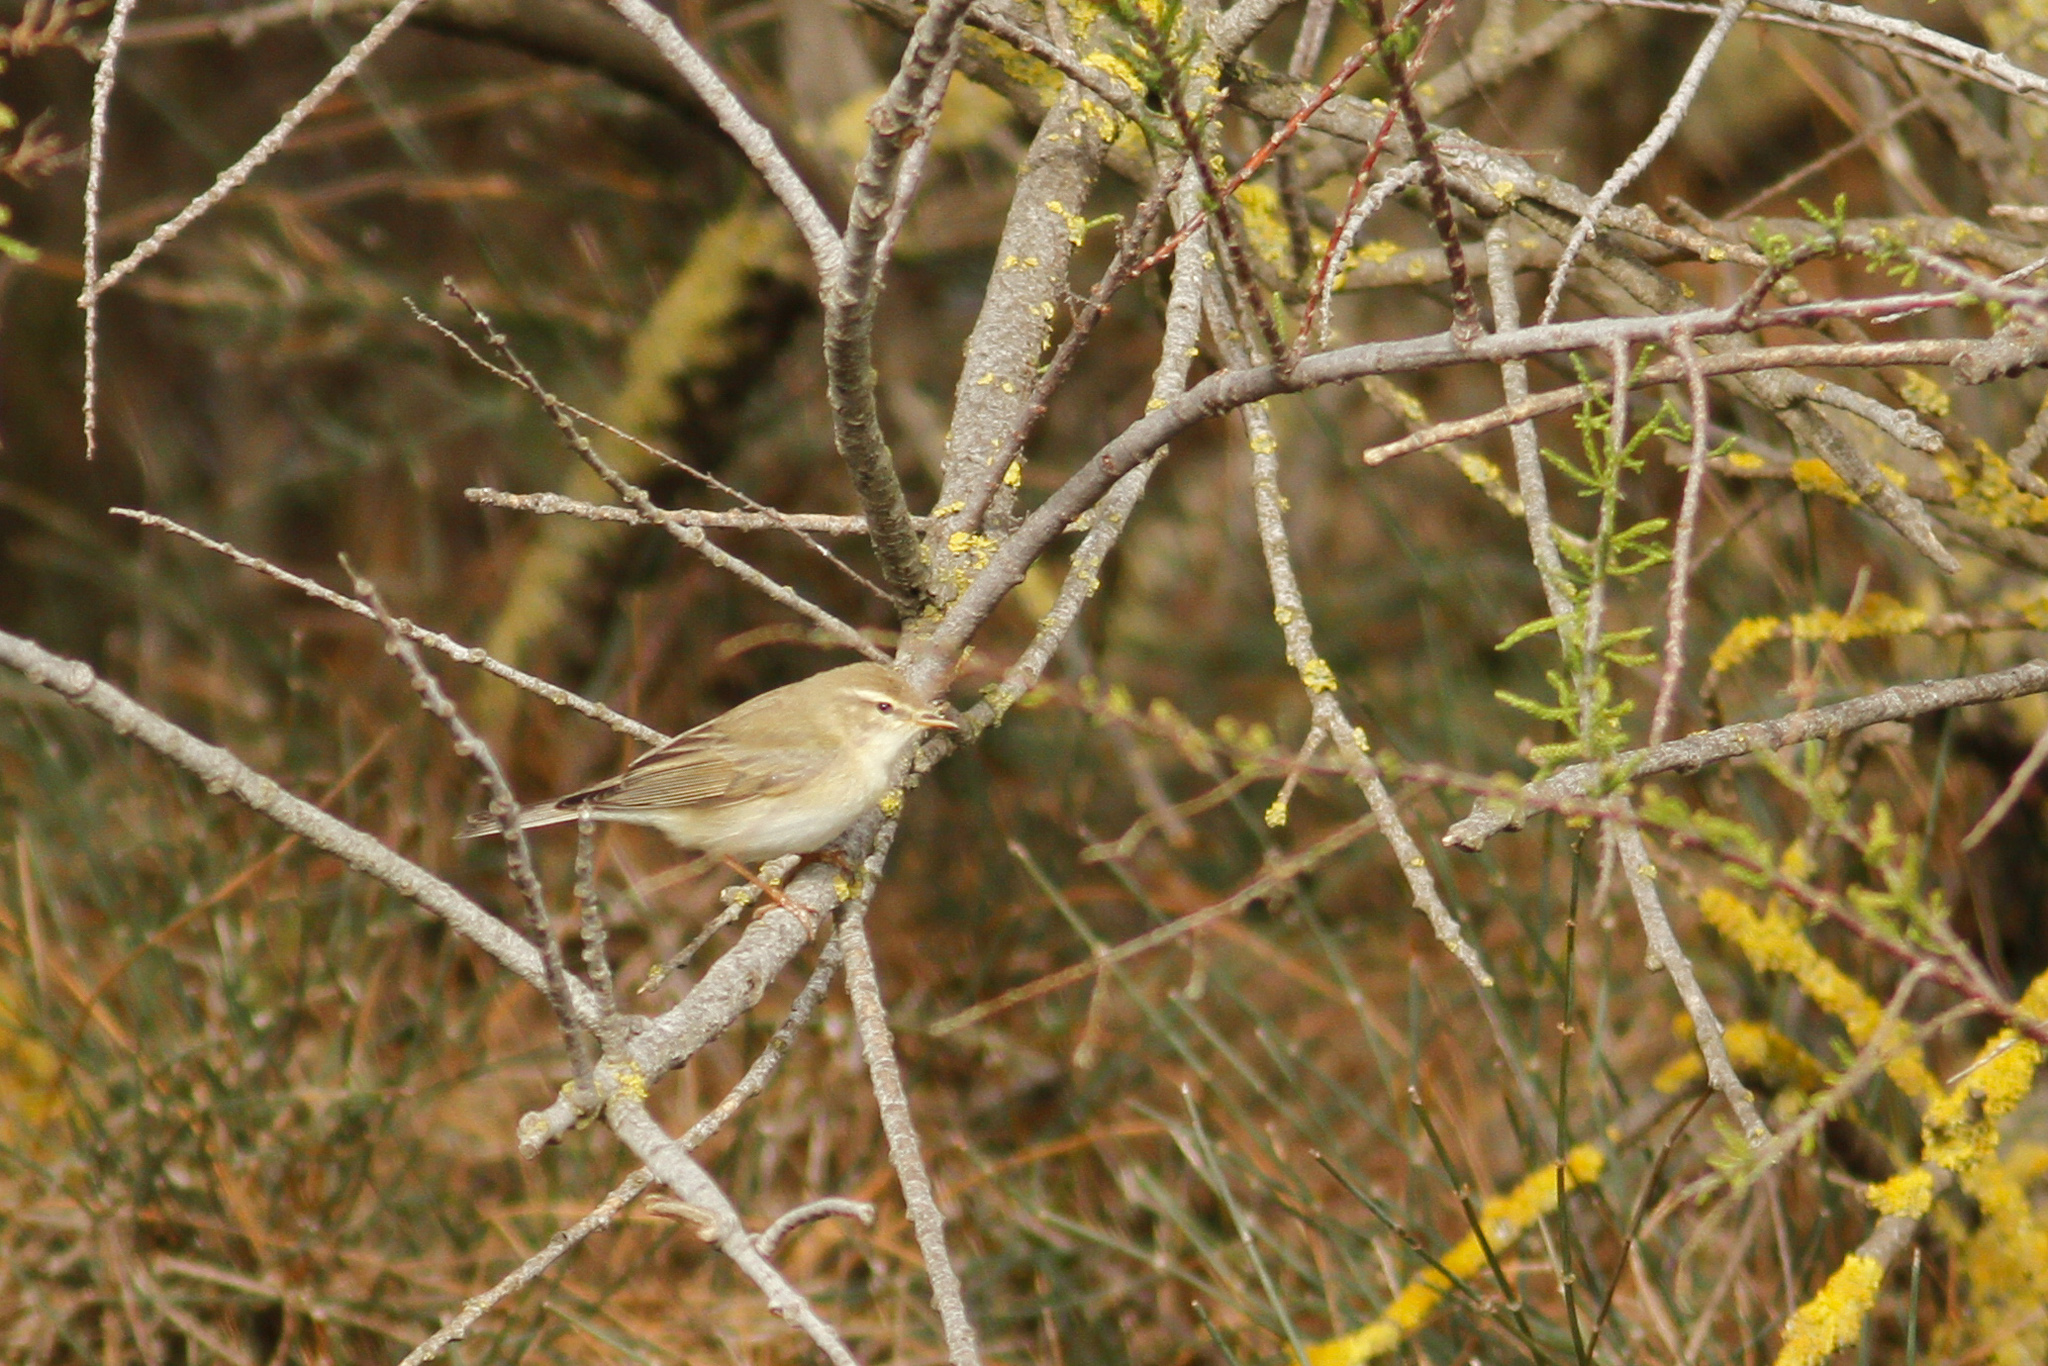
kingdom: Animalia
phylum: Chordata
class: Aves
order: Passeriformes
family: Phylloscopidae
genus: Phylloscopus
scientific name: Phylloscopus trochilus
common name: Willow warbler
